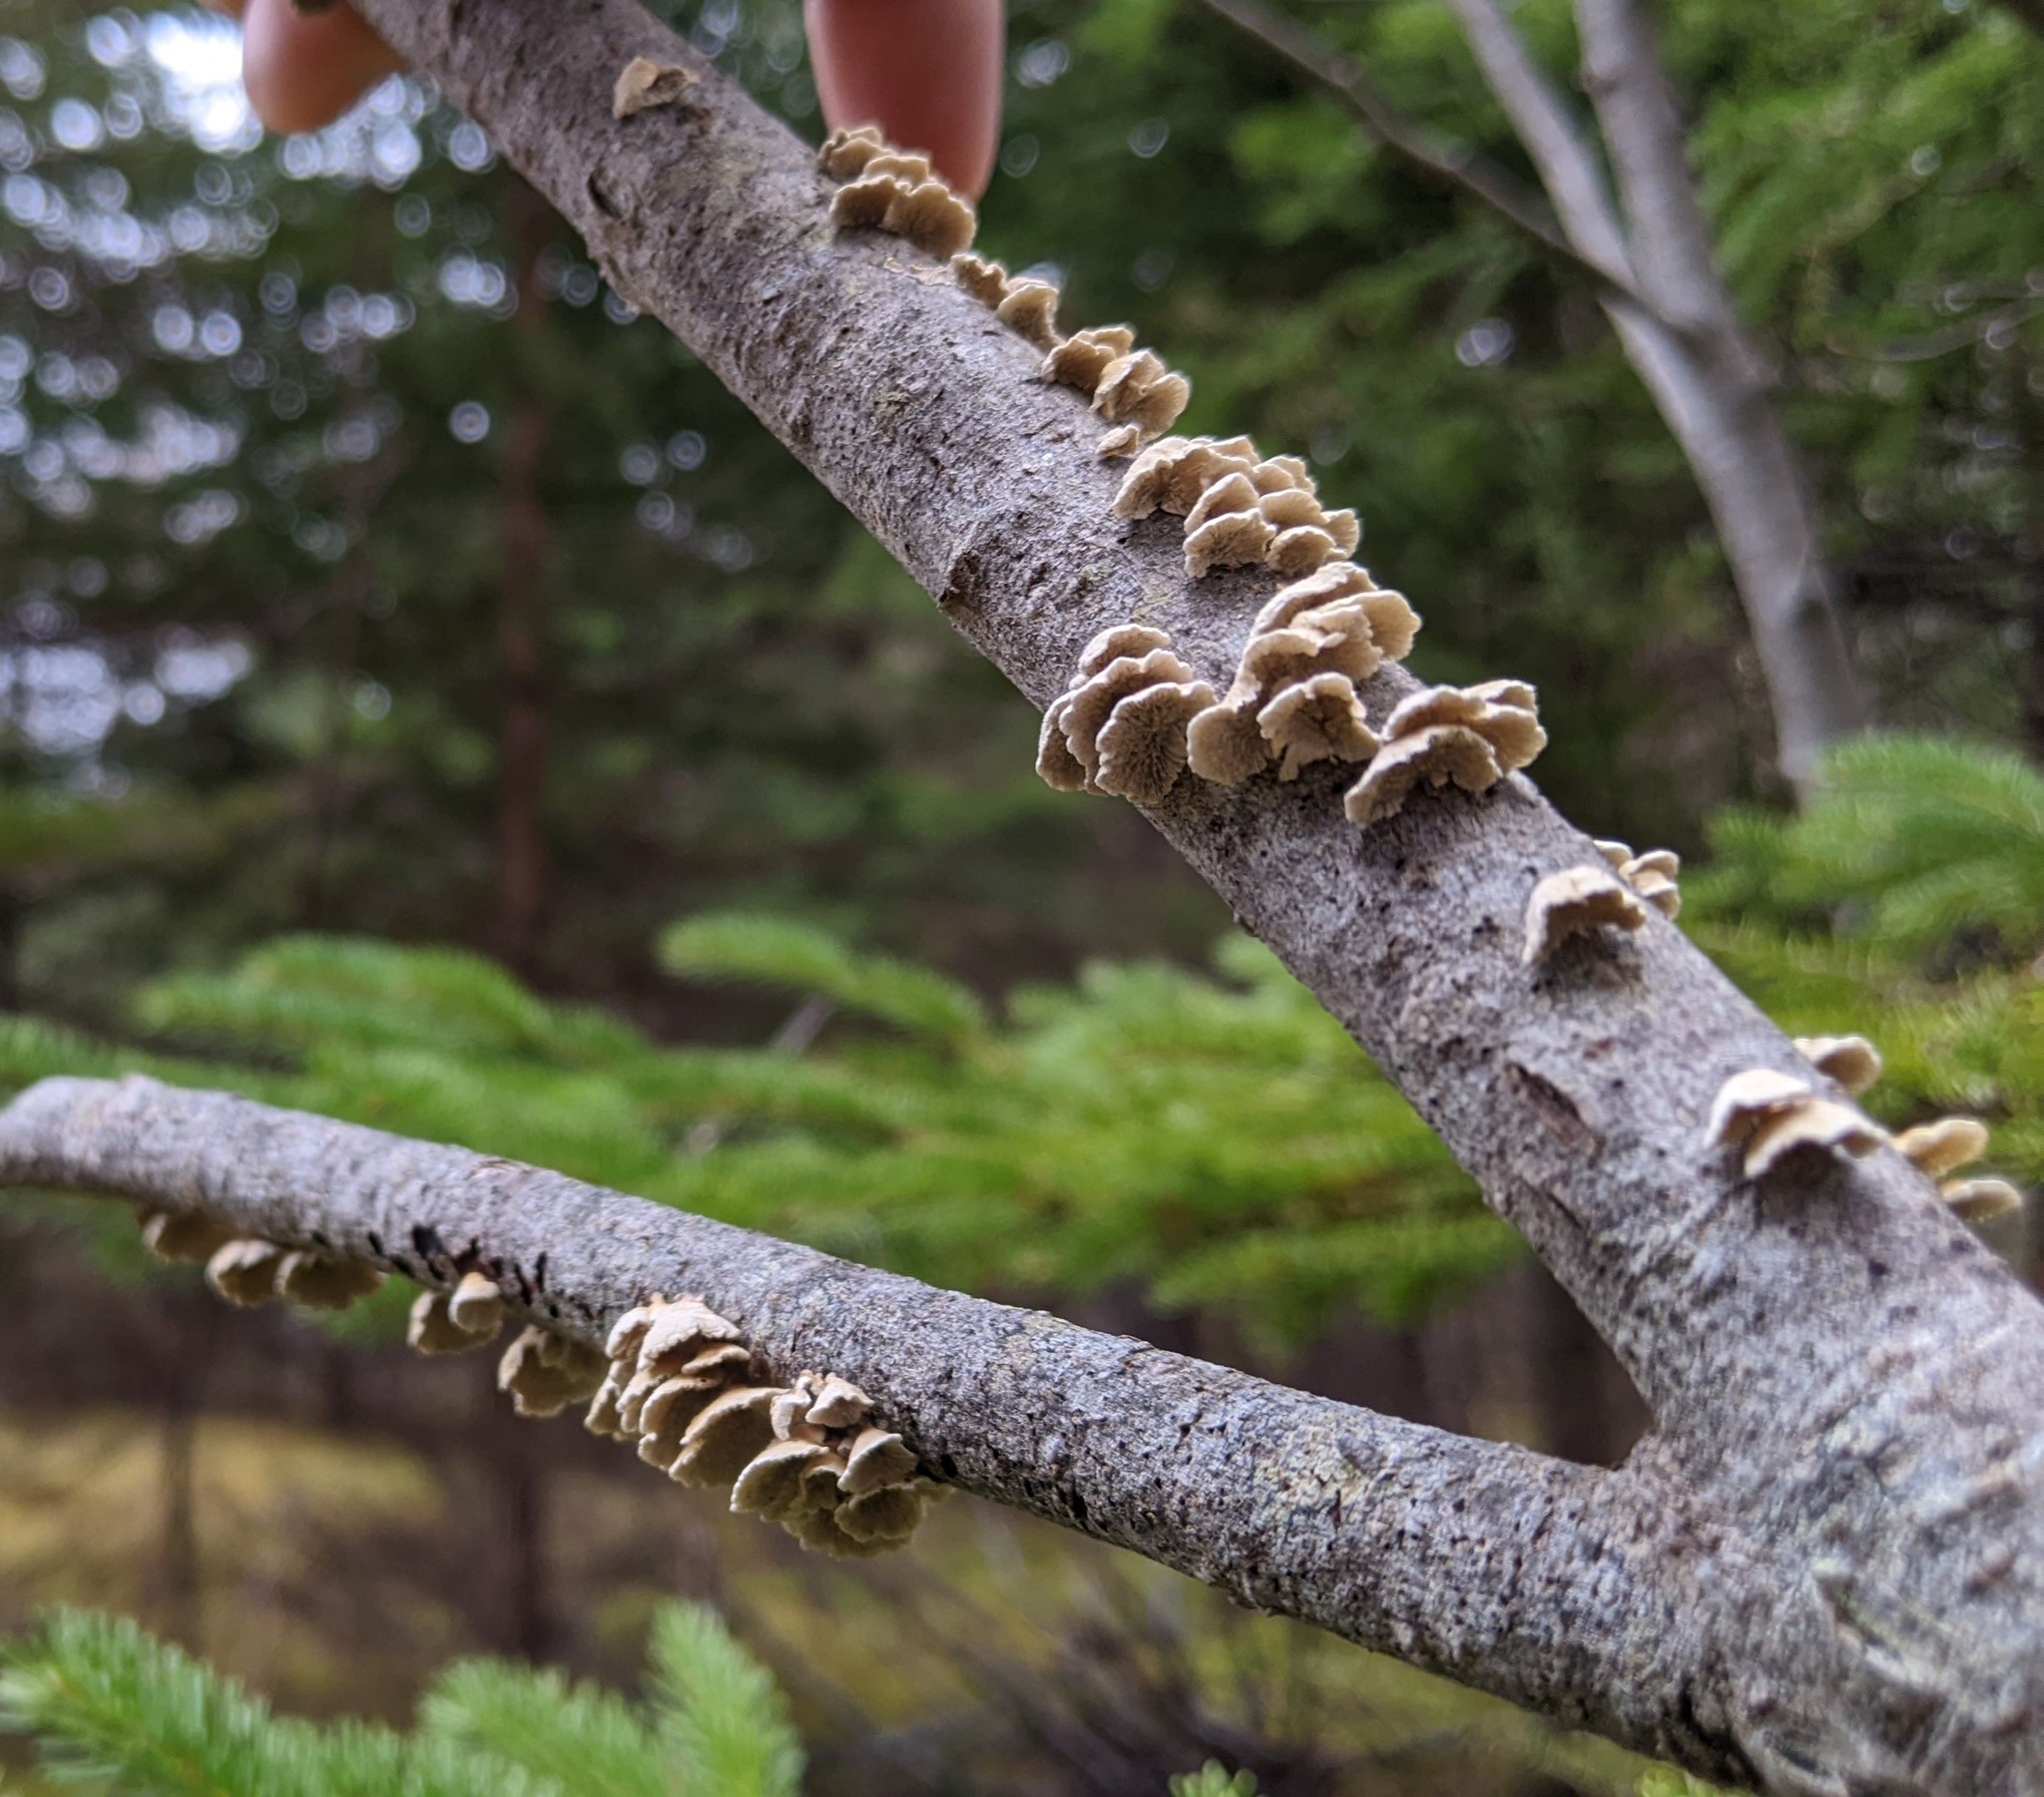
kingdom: Fungi
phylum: Basidiomycota
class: Agaricomycetes
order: Amylocorticiales
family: Amylocorticiaceae
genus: Plicaturopsis
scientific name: Plicaturopsis crispa
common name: Crimped gill
